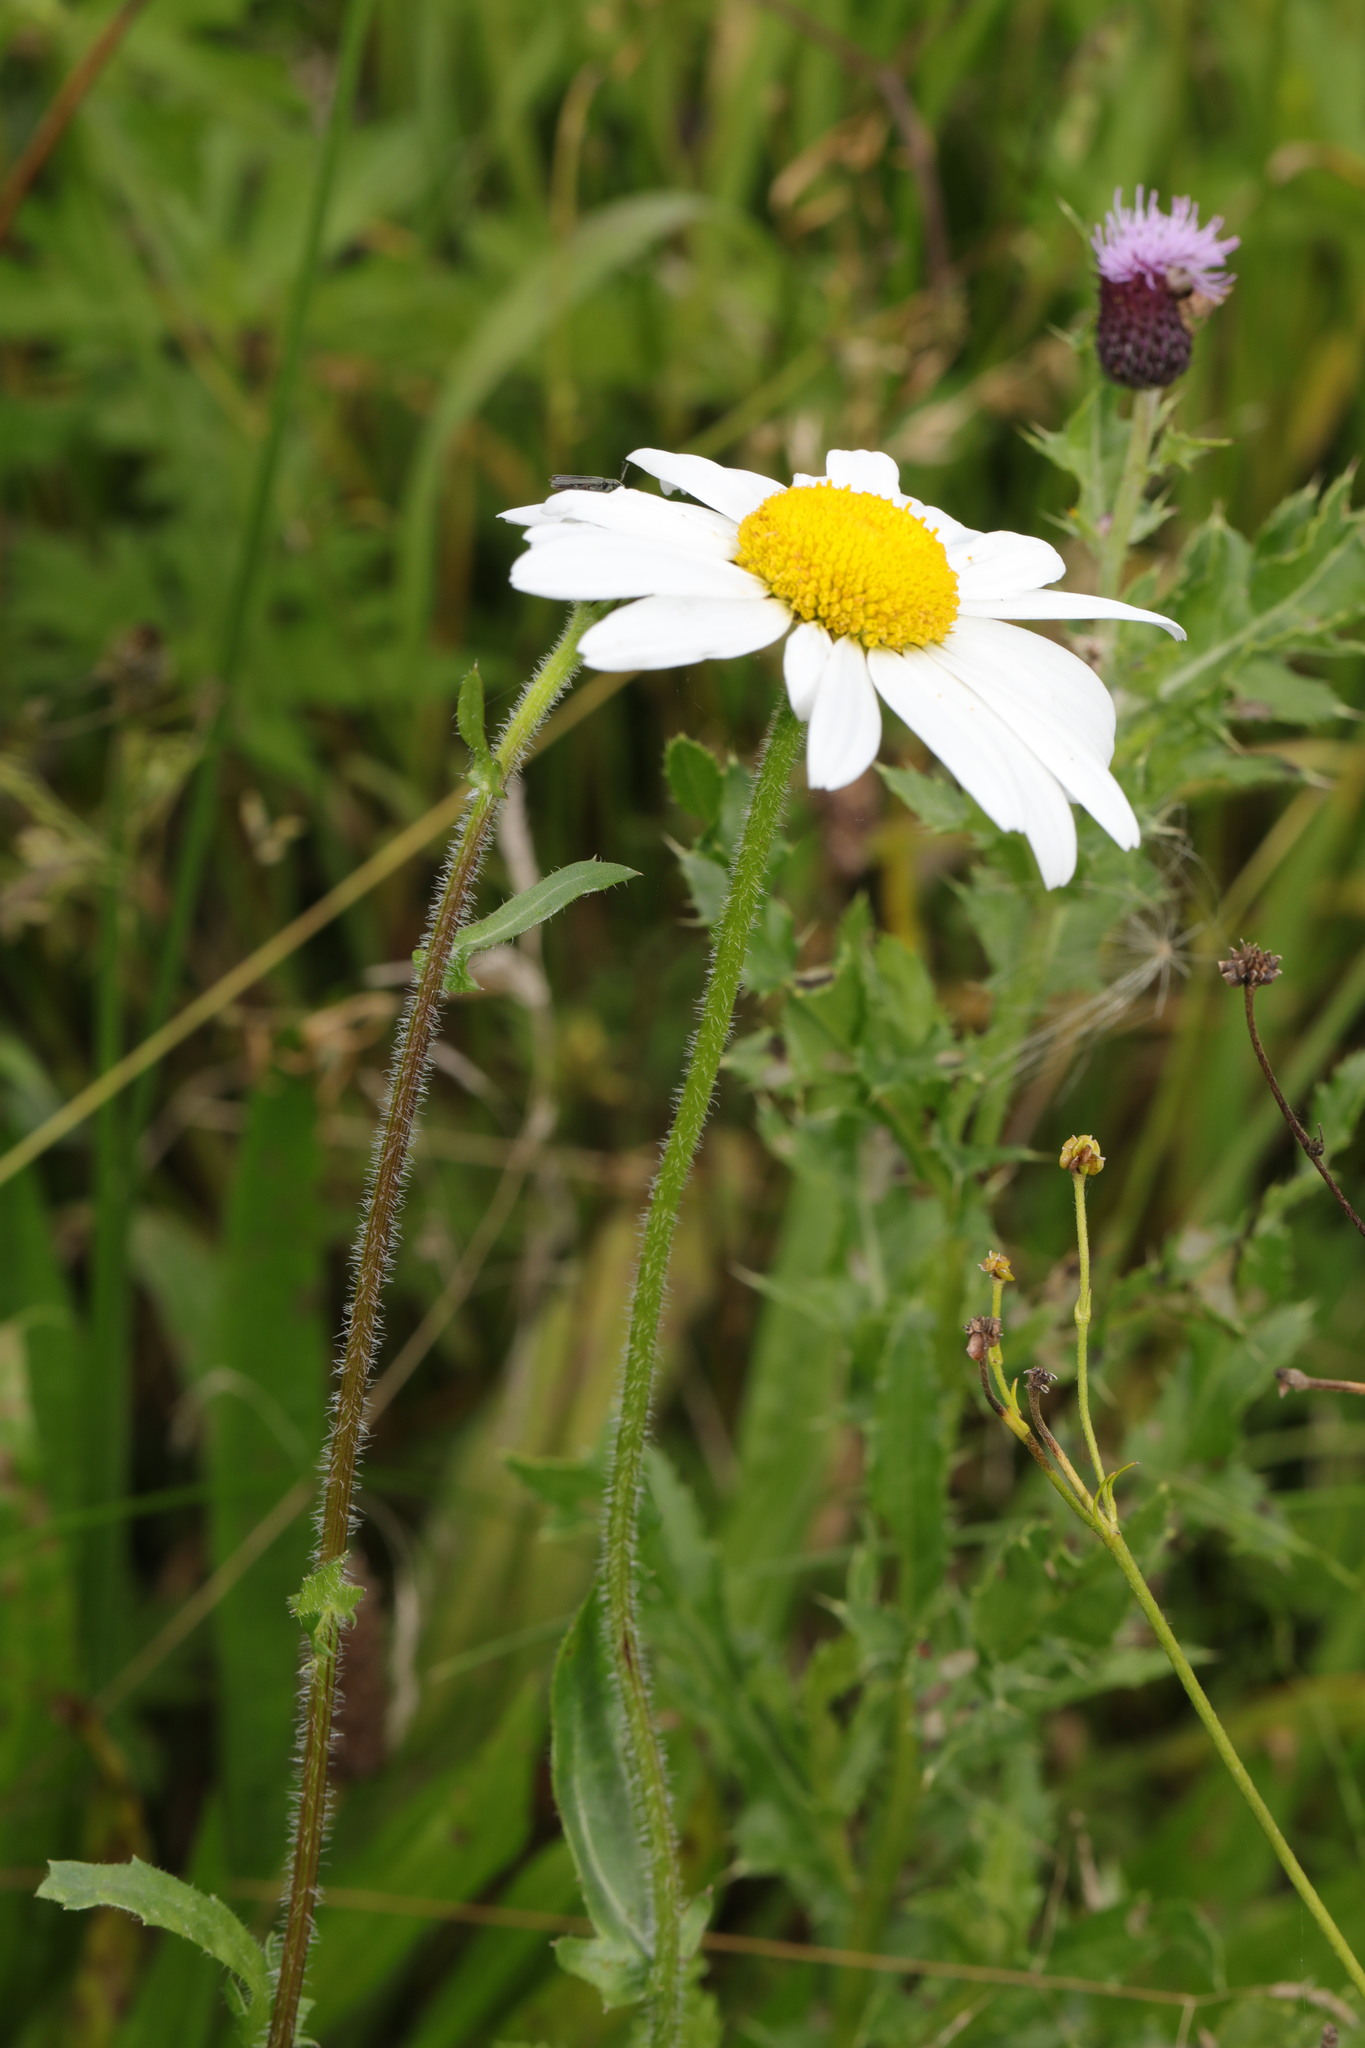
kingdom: Plantae
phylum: Tracheophyta
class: Magnoliopsida
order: Asterales
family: Asteraceae
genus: Leucanthemum
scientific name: Leucanthemum vulgare
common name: Oxeye daisy
